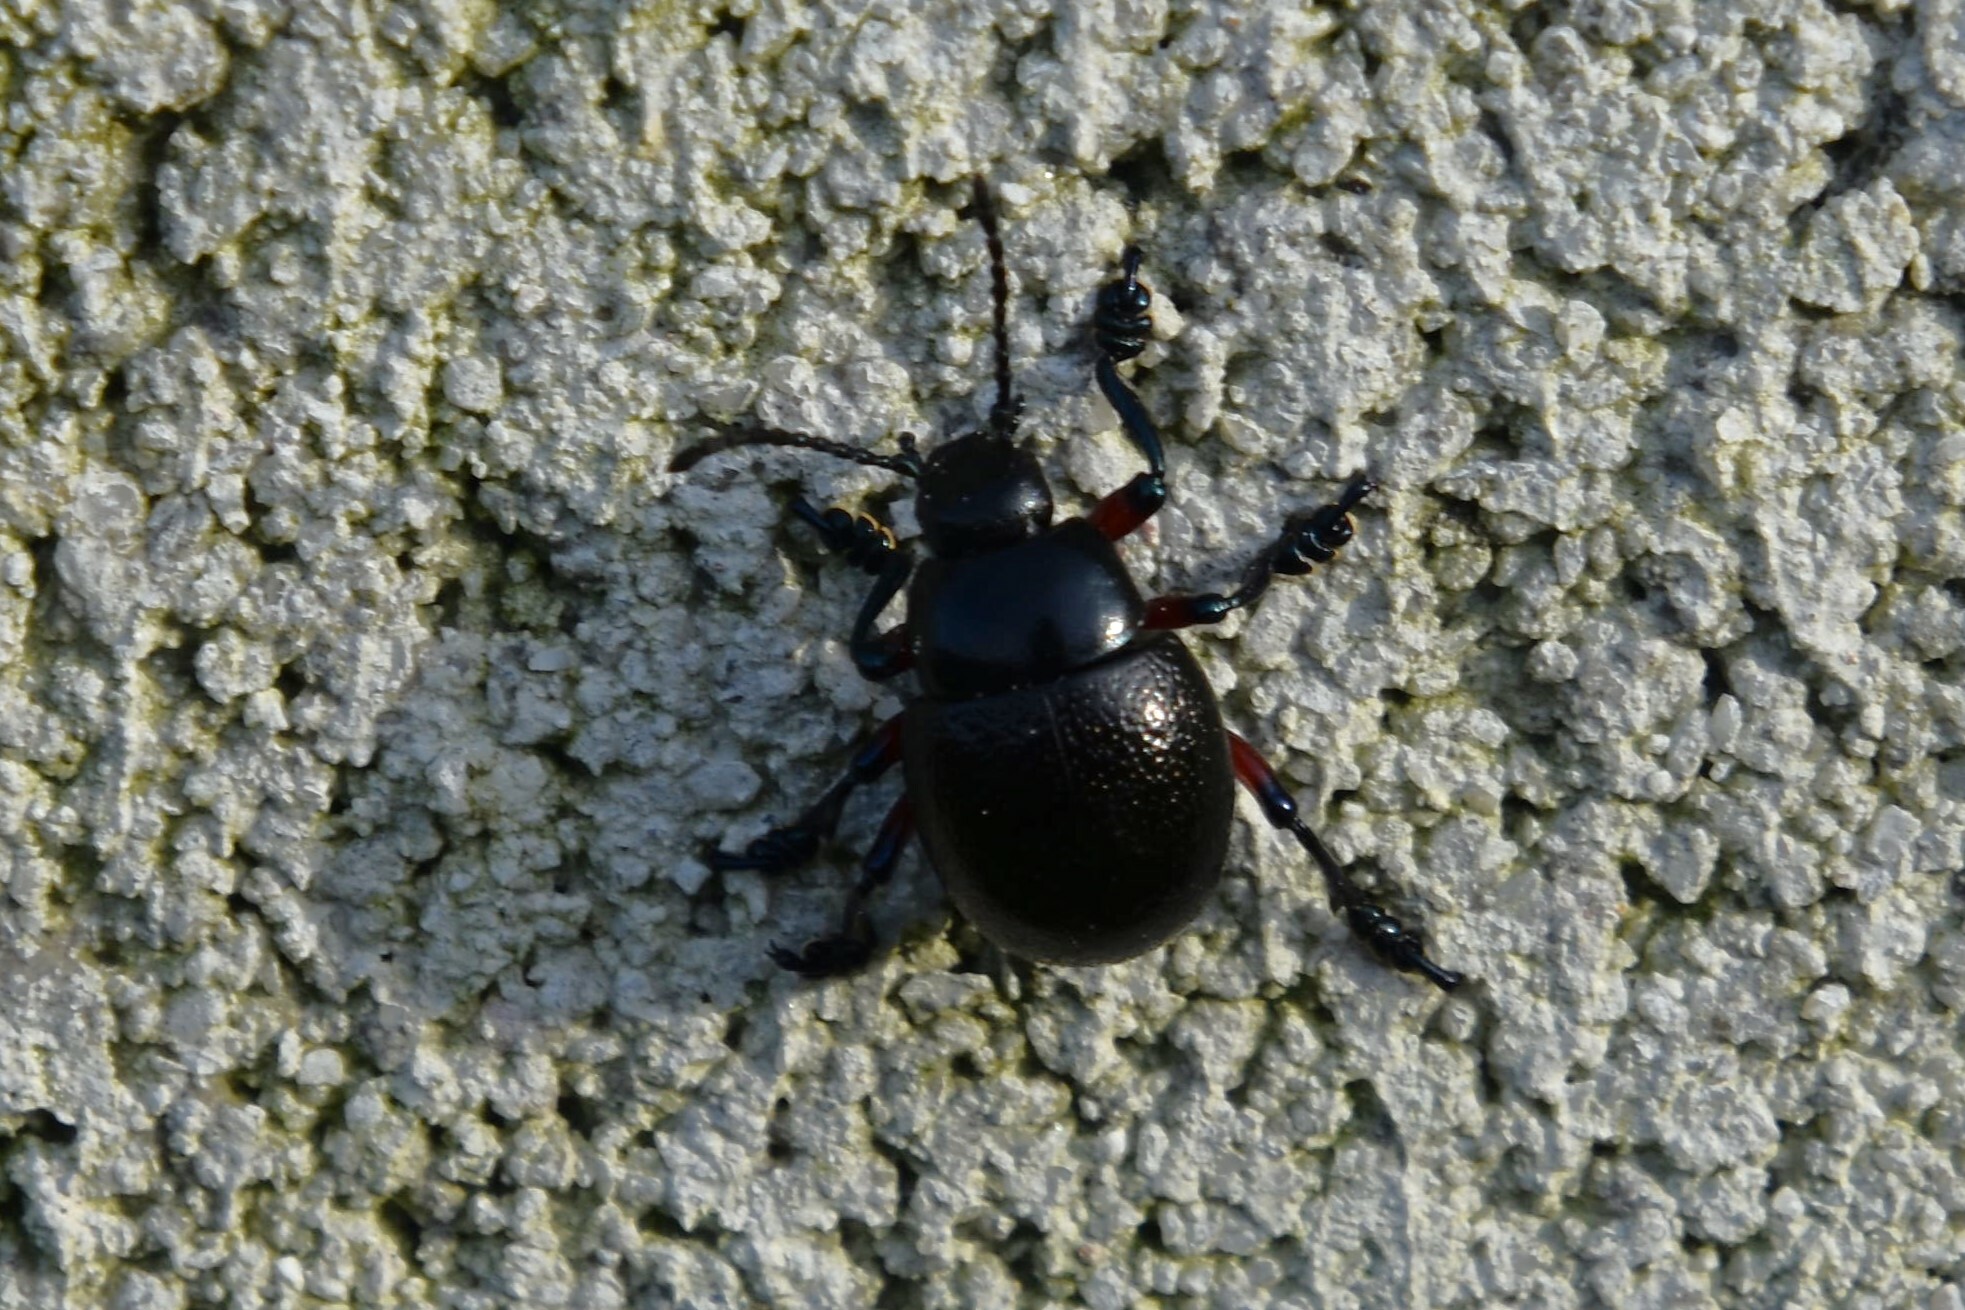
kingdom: Animalia
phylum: Arthropoda
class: Insecta
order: Coleoptera
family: Chrysomelidae
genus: Timarcha
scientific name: Timarcha gougeleti
